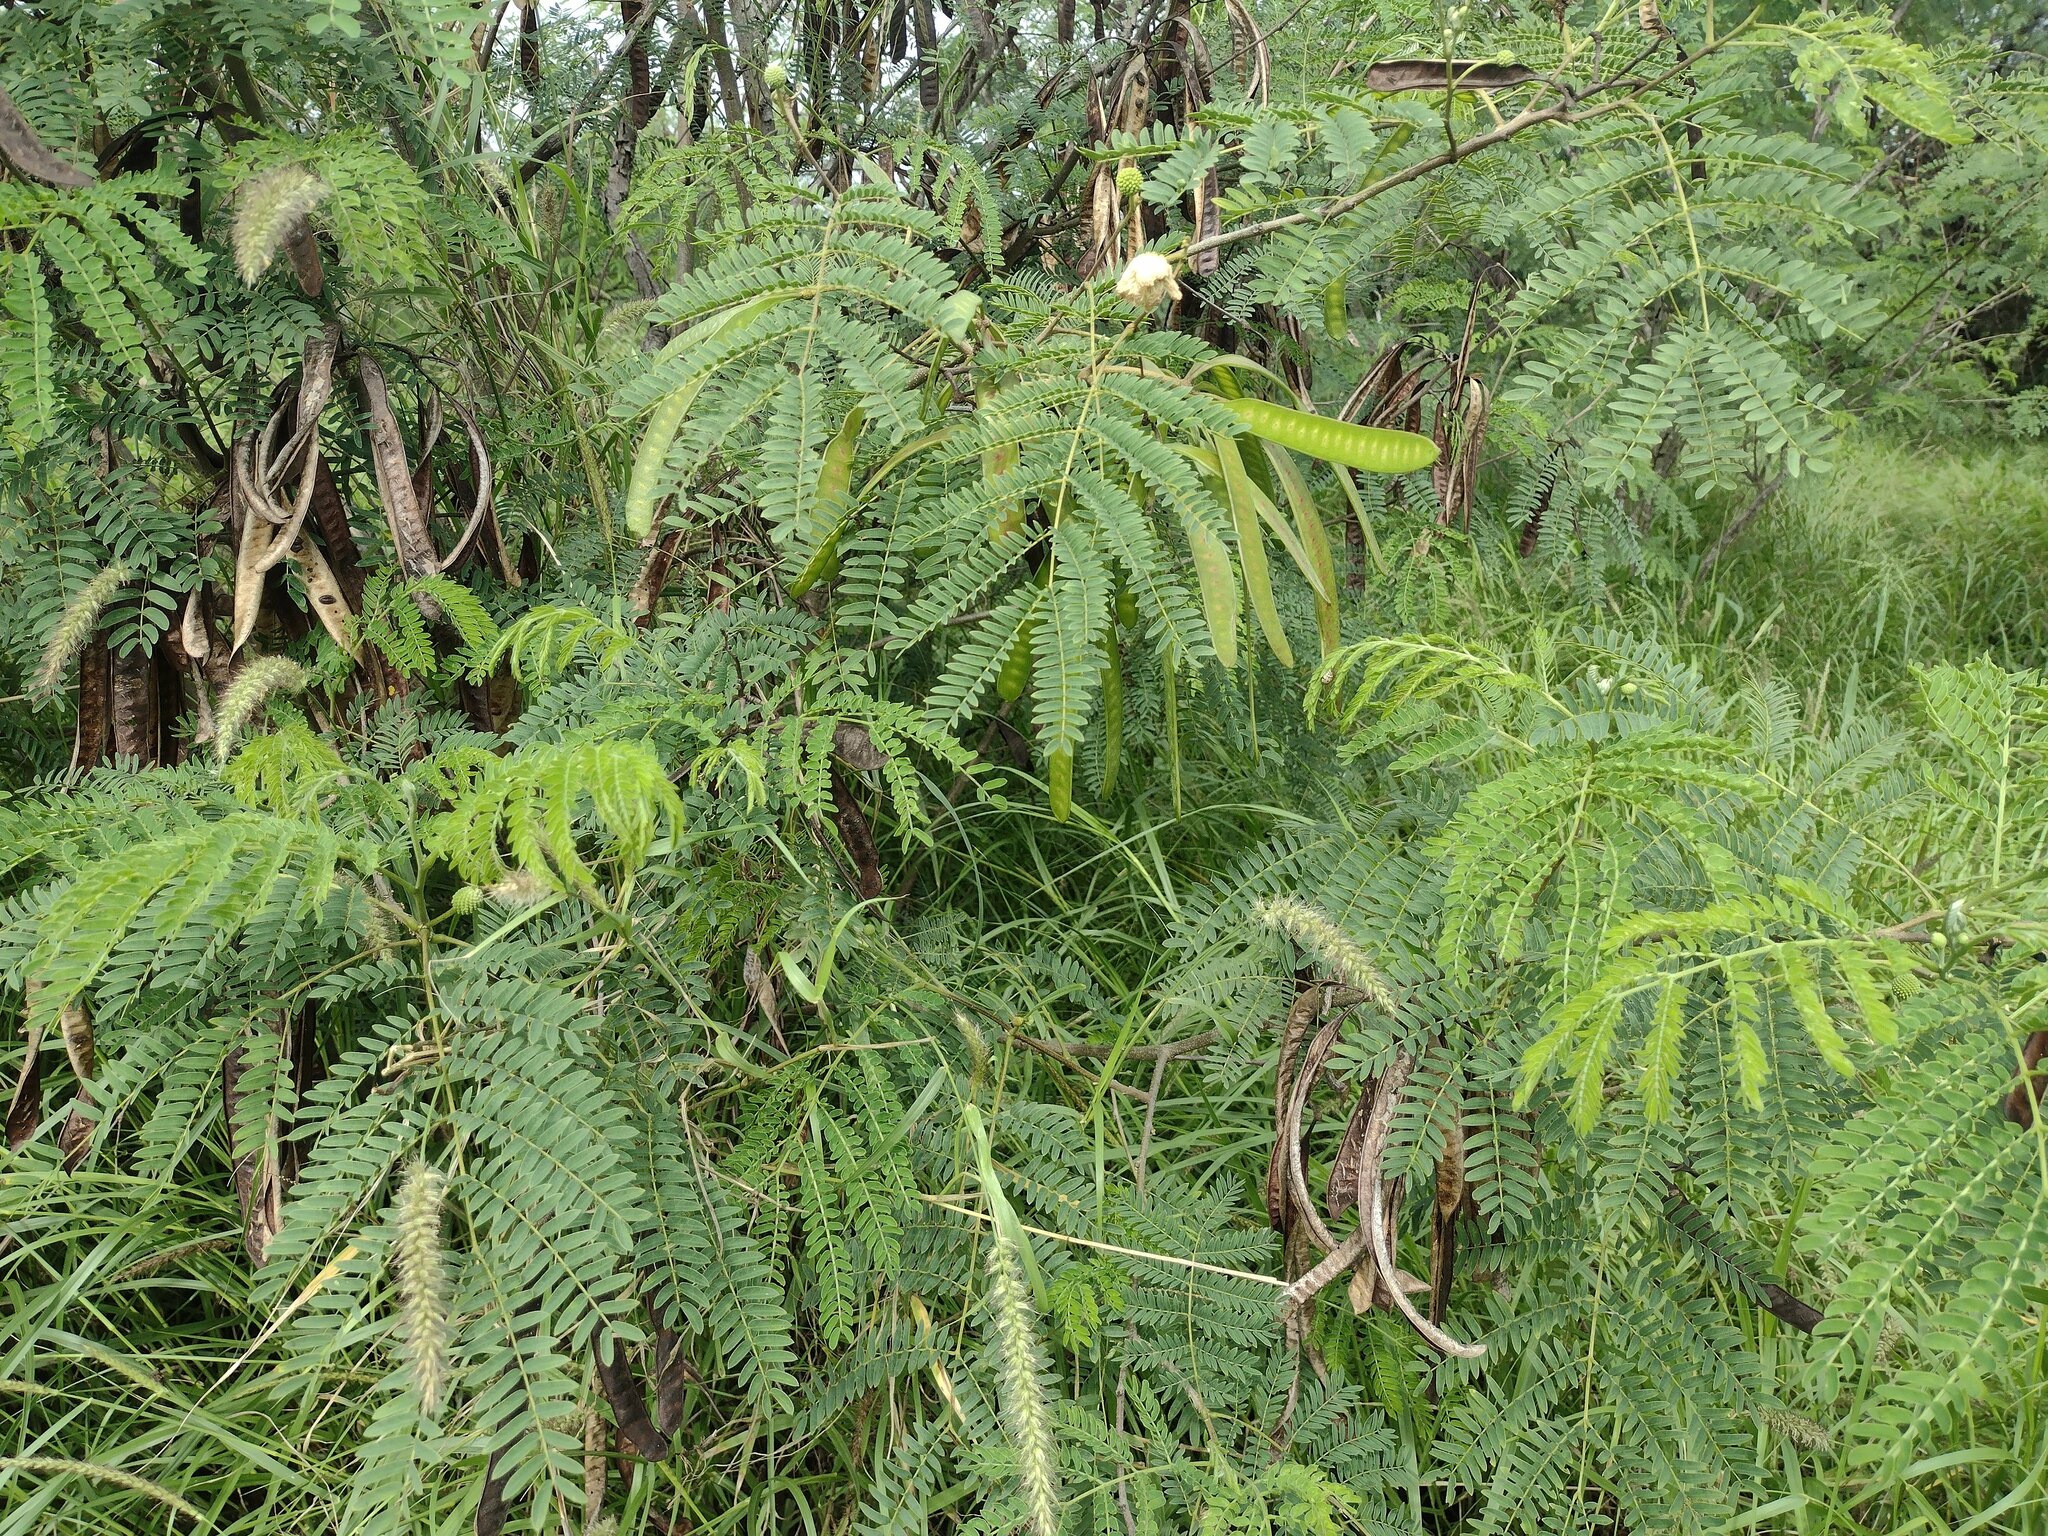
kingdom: Plantae
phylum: Tracheophyta
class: Magnoliopsida
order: Fabales
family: Fabaceae
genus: Leucaena
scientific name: Leucaena leucocephala
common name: White leadtree
